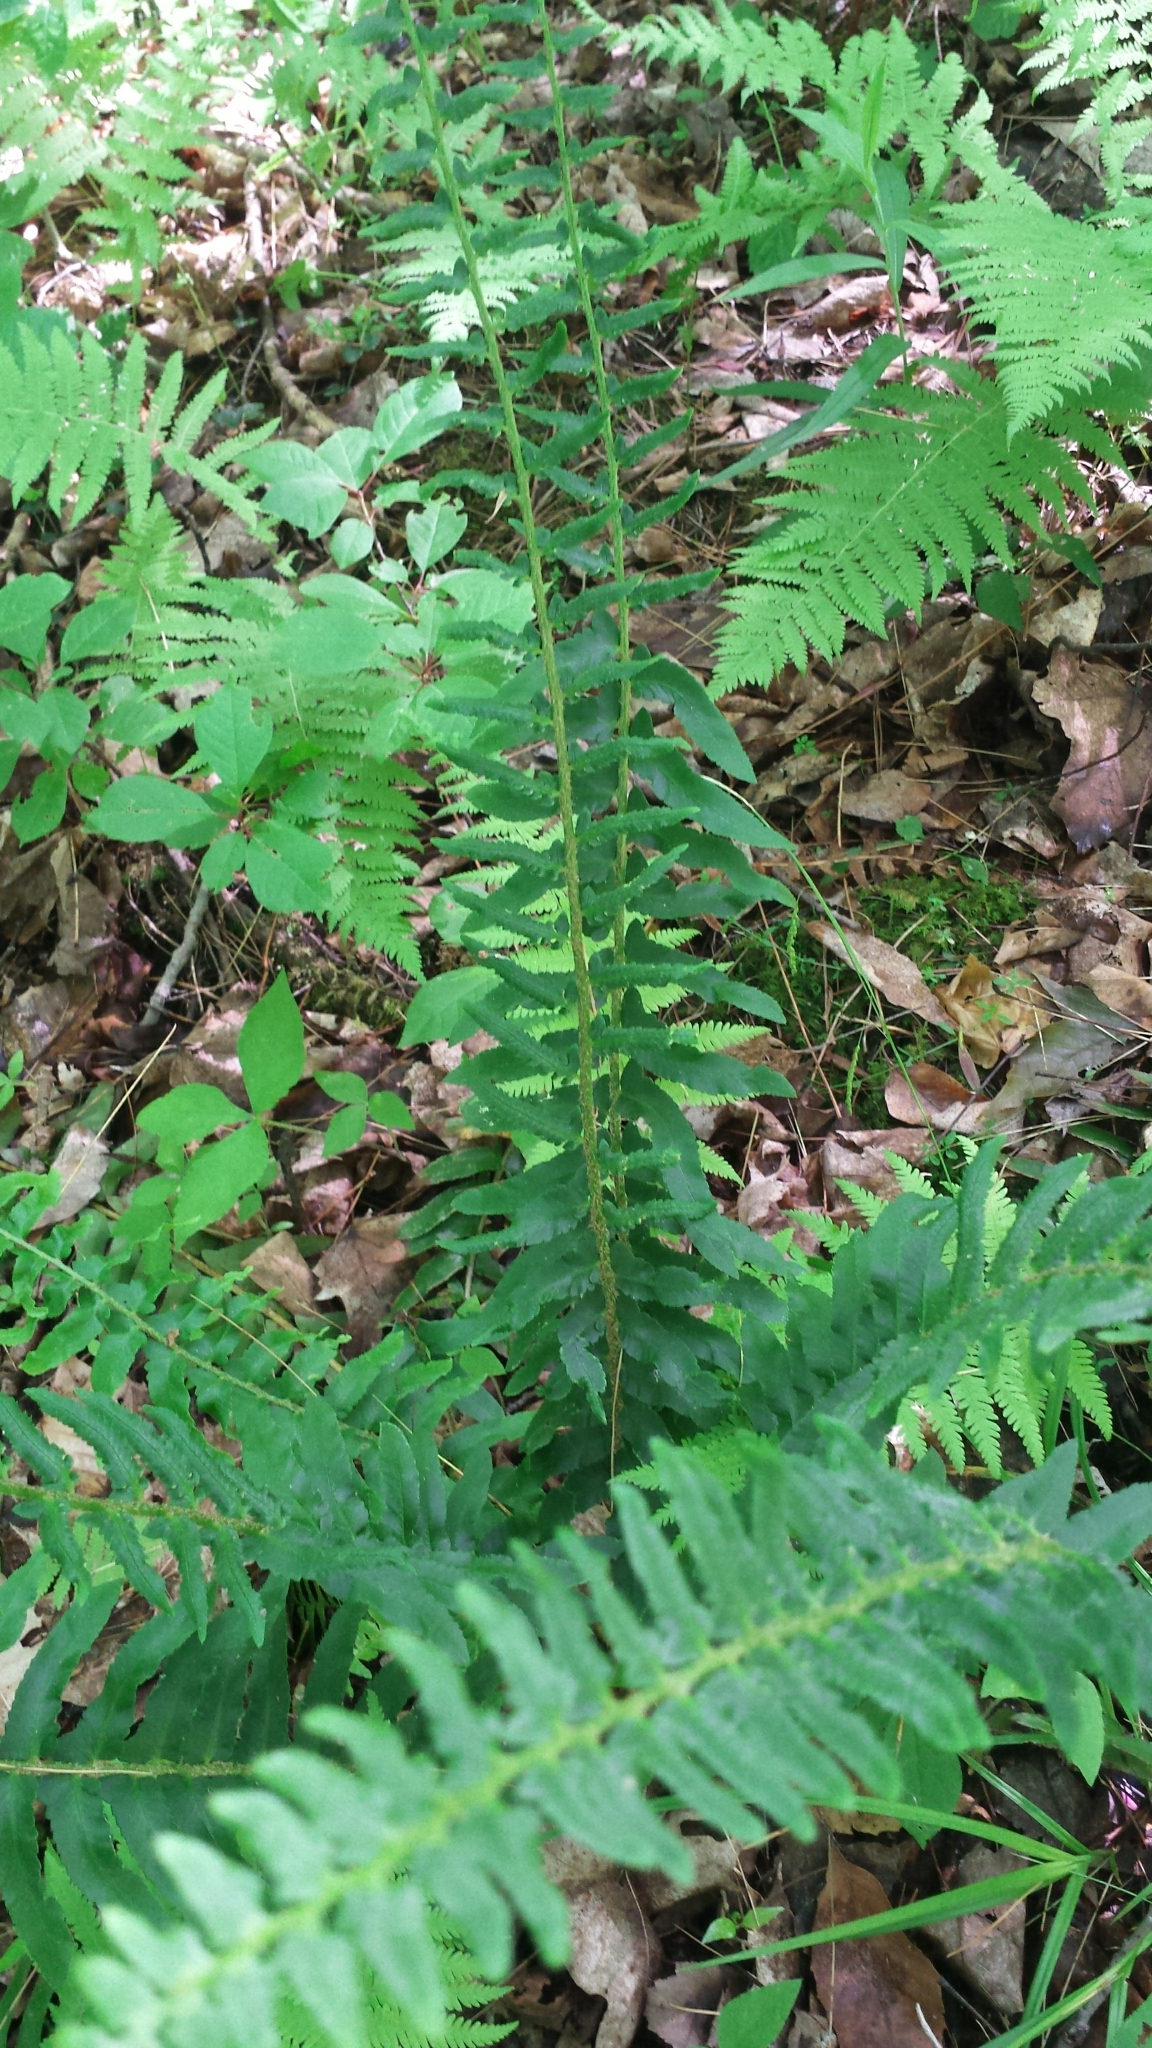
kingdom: Plantae
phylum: Tracheophyta
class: Polypodiopsida
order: Polypodiales
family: Dryopteridaceae
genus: Polystichum
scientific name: Polystichum acrostichoides
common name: Christmas fern
